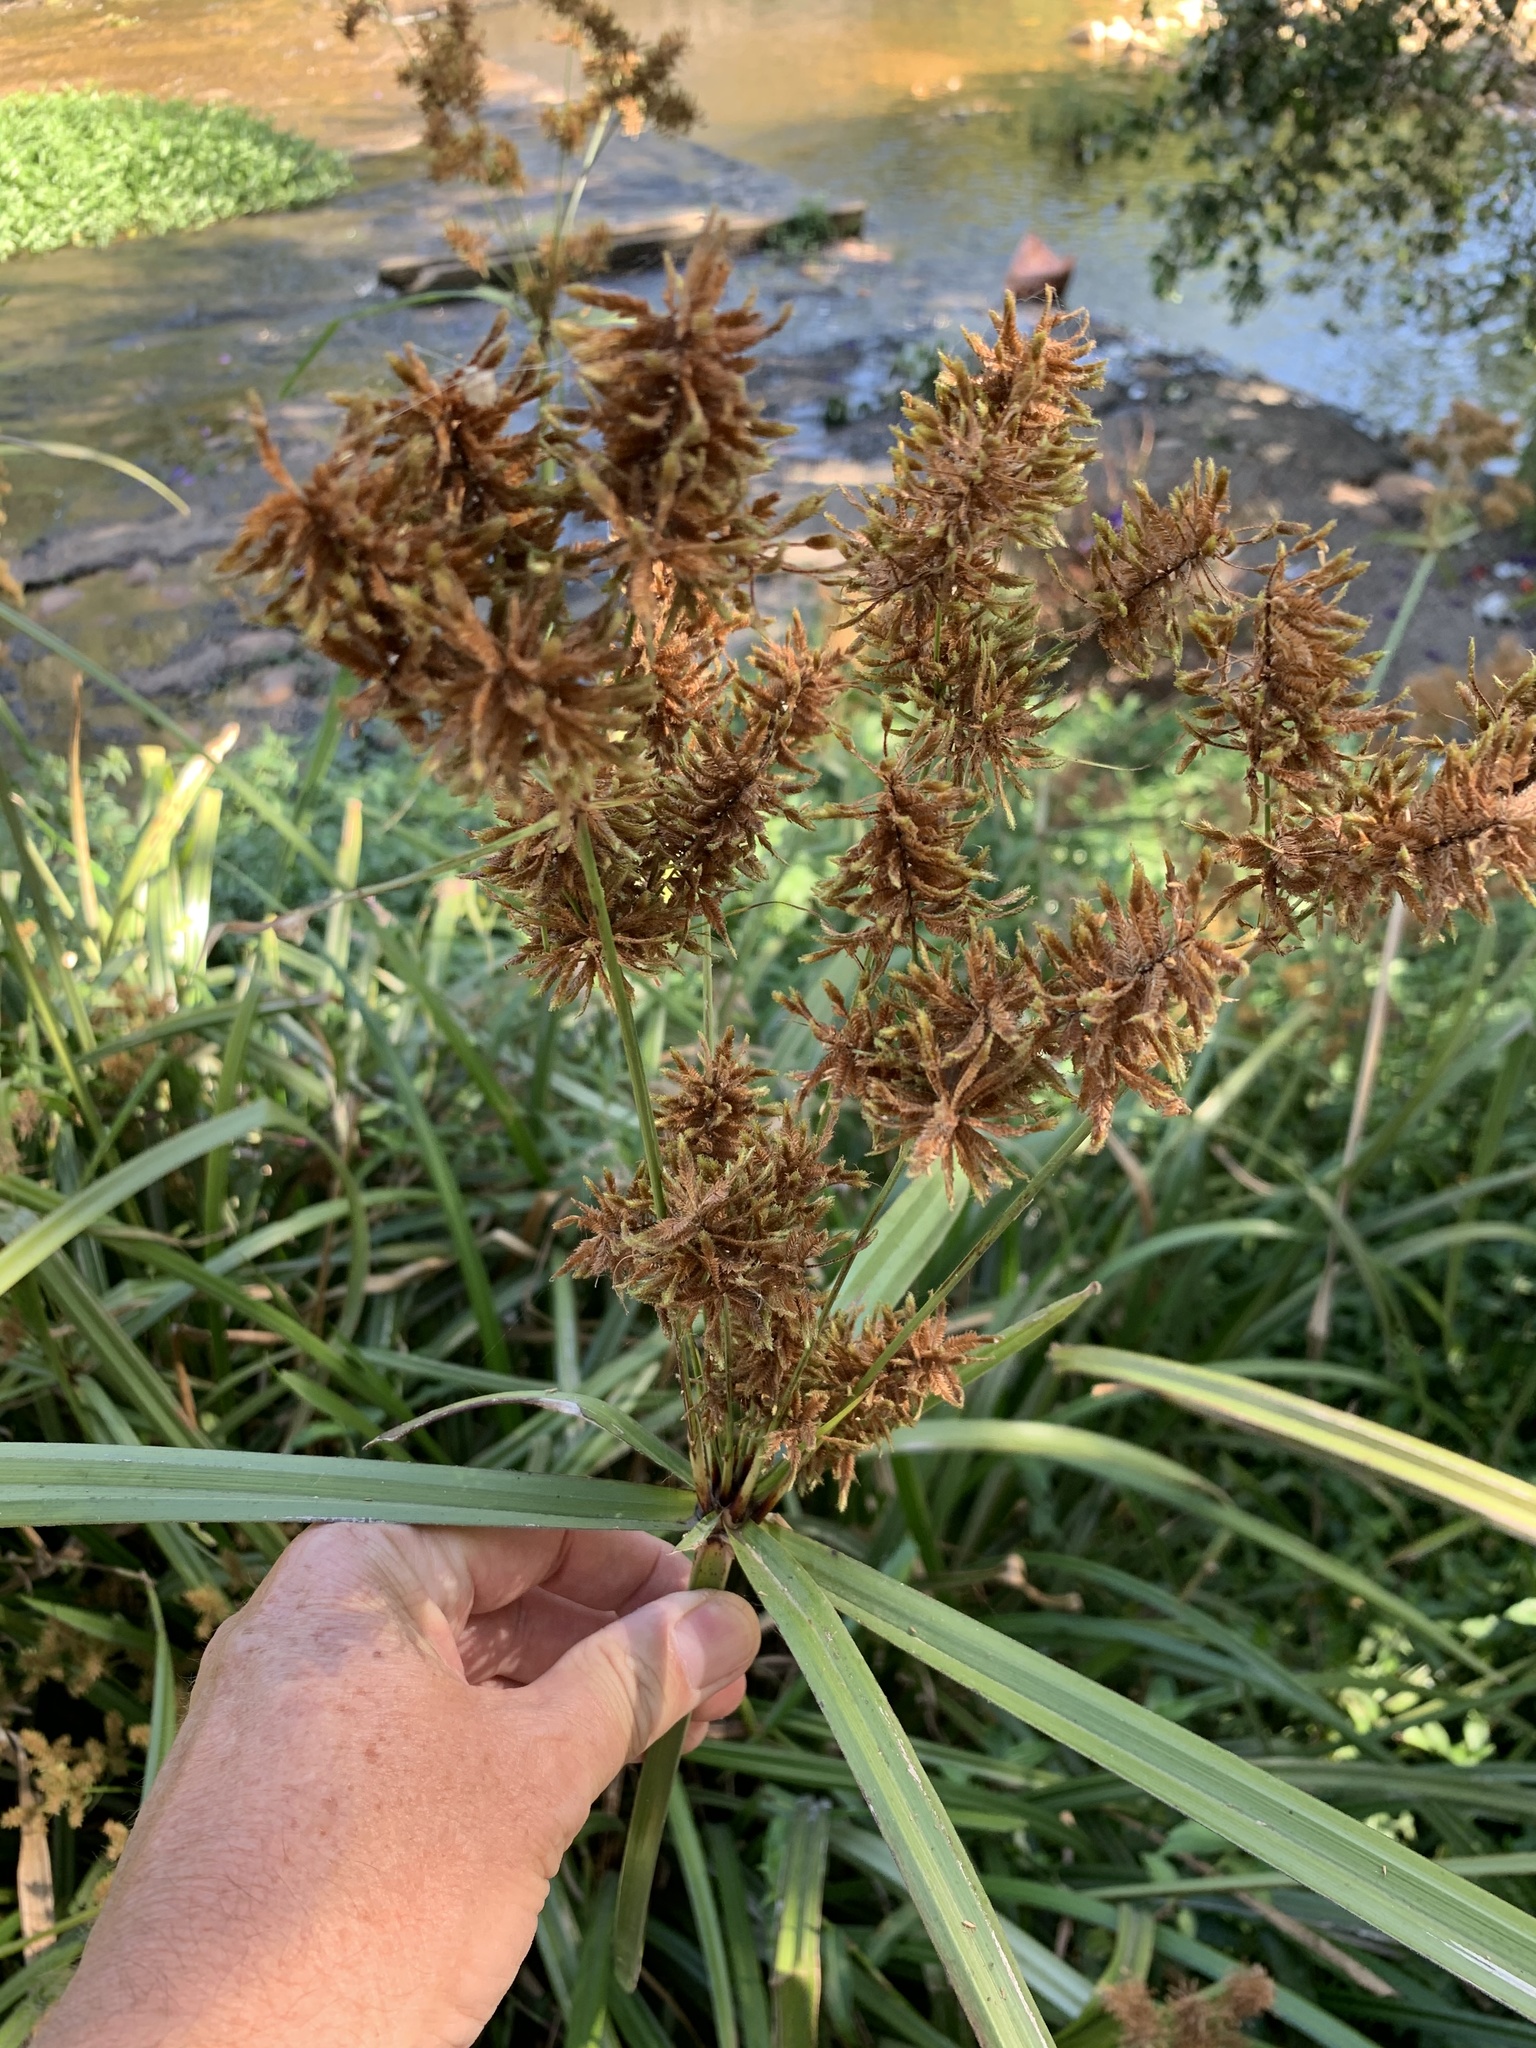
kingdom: Plantae
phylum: Tracheophyta
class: Liliopsida
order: Poales
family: Cyperaceae
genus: Cyperus
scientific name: Cyperus dives
